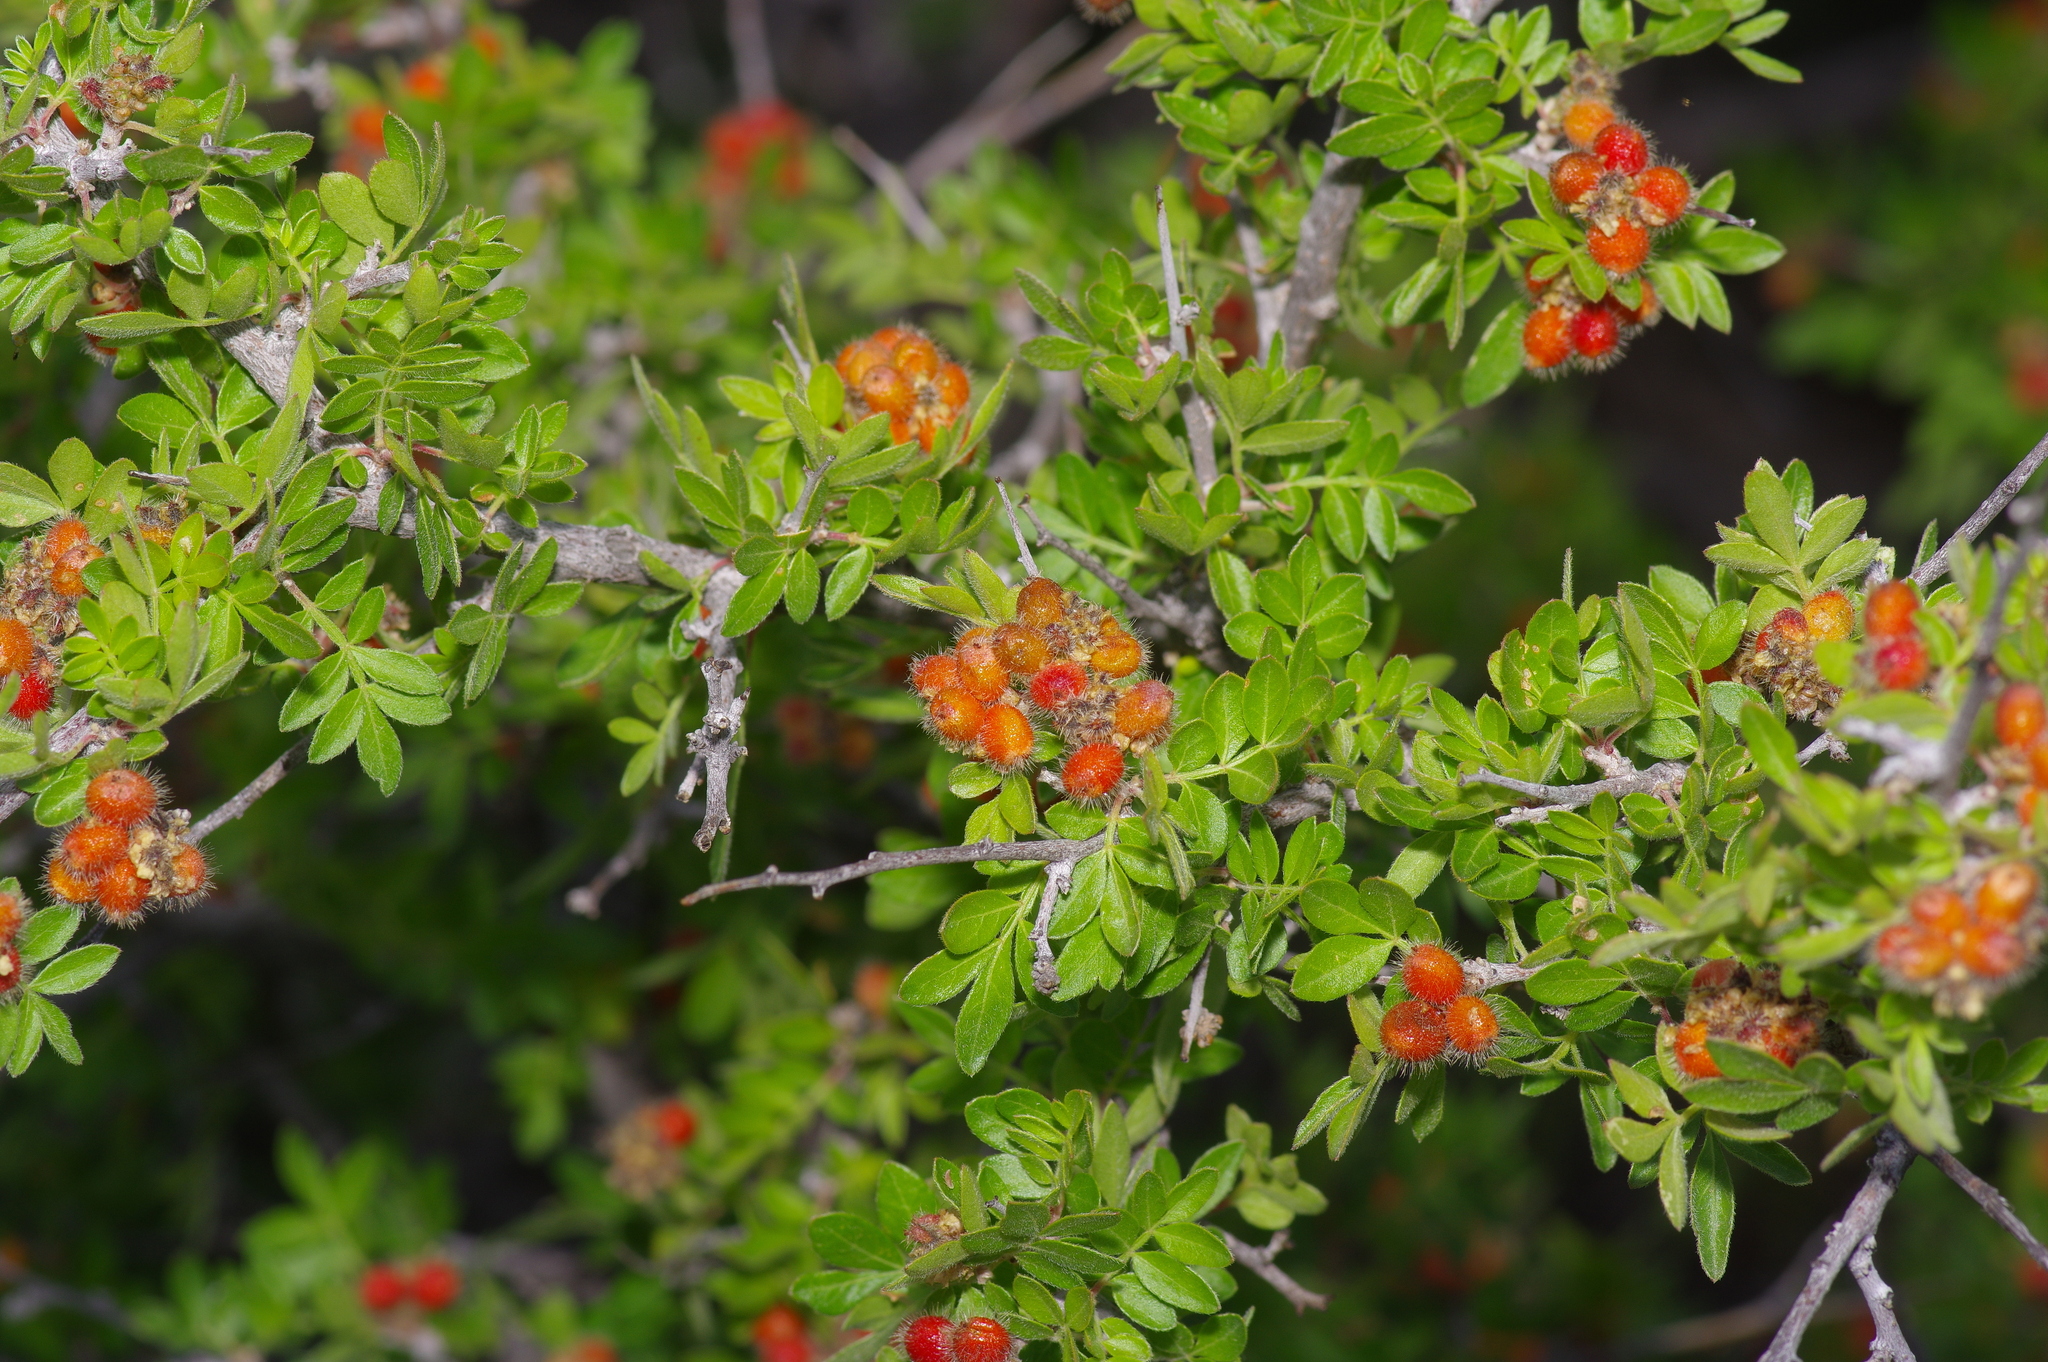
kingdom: Plantae
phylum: Tracheophyta
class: Magnoliopsida
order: Sapindales
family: Anacardiaceae
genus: Rhus
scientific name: Rhus microphylla
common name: Desert sumac
